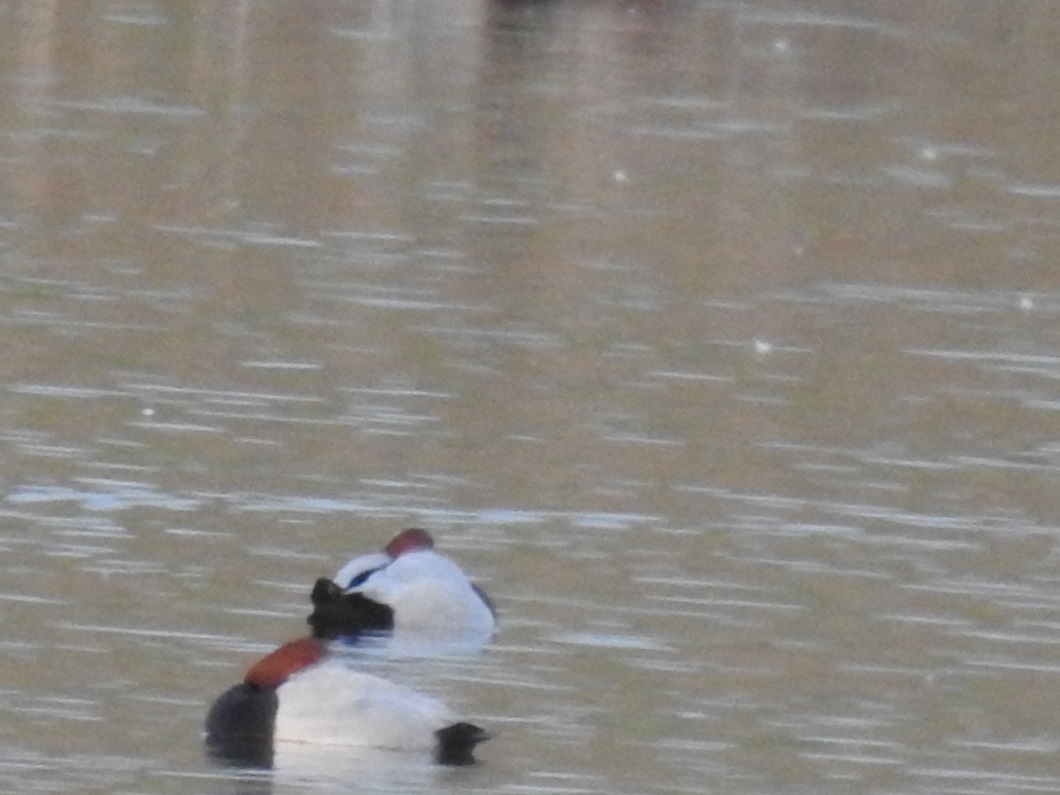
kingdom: Animalia
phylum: Chordata
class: Aves
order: Anseriformes
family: Anatidae
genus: Aythya
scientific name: Aythya ferina
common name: Common pochard
